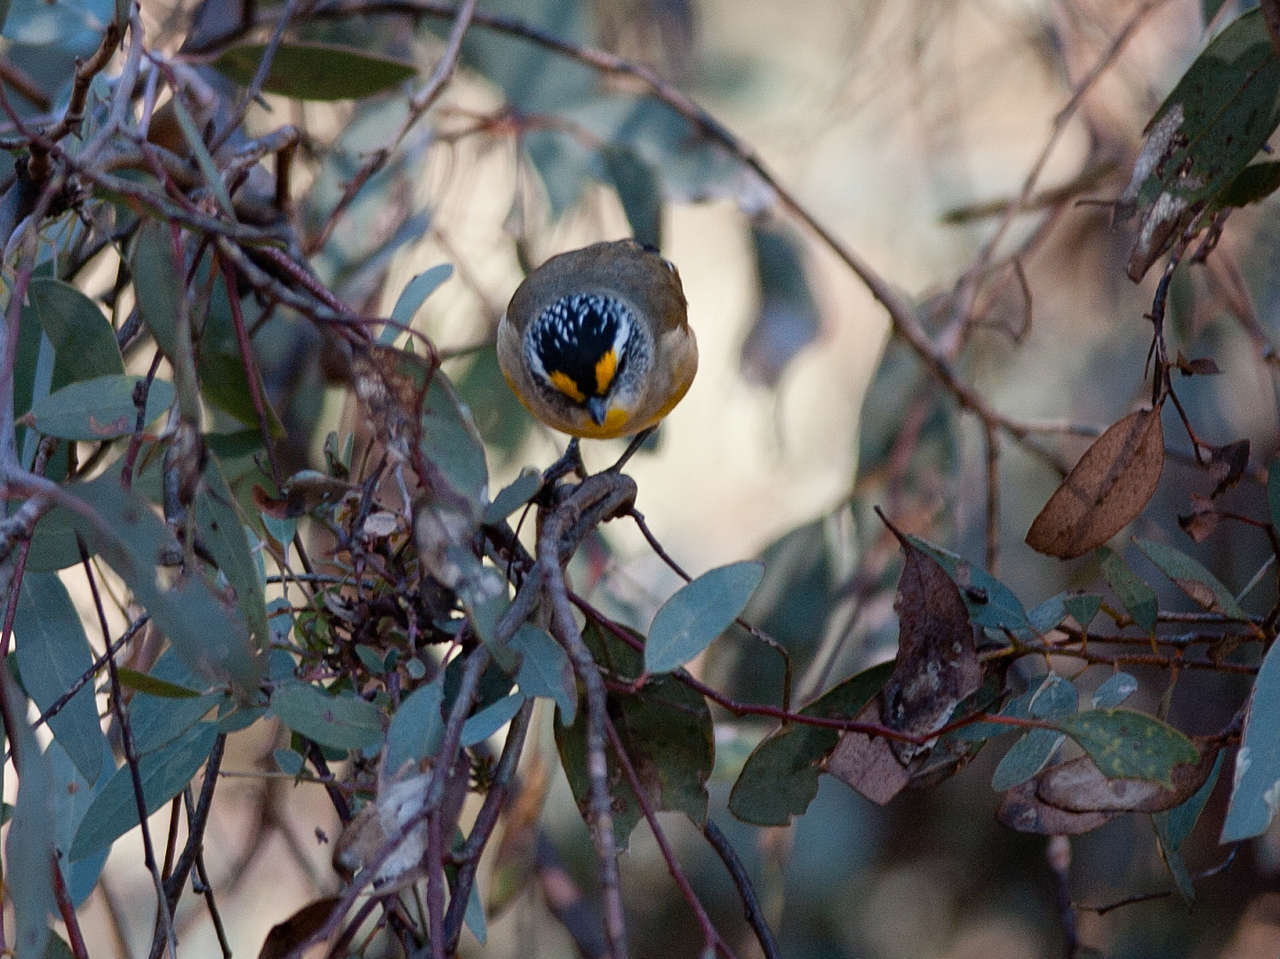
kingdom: Animalia
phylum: Chordata
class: Aves
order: Passeriformes
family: Pardalotidae
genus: Pardalotus
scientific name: Pardalotus striatus
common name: Striated pardalote
